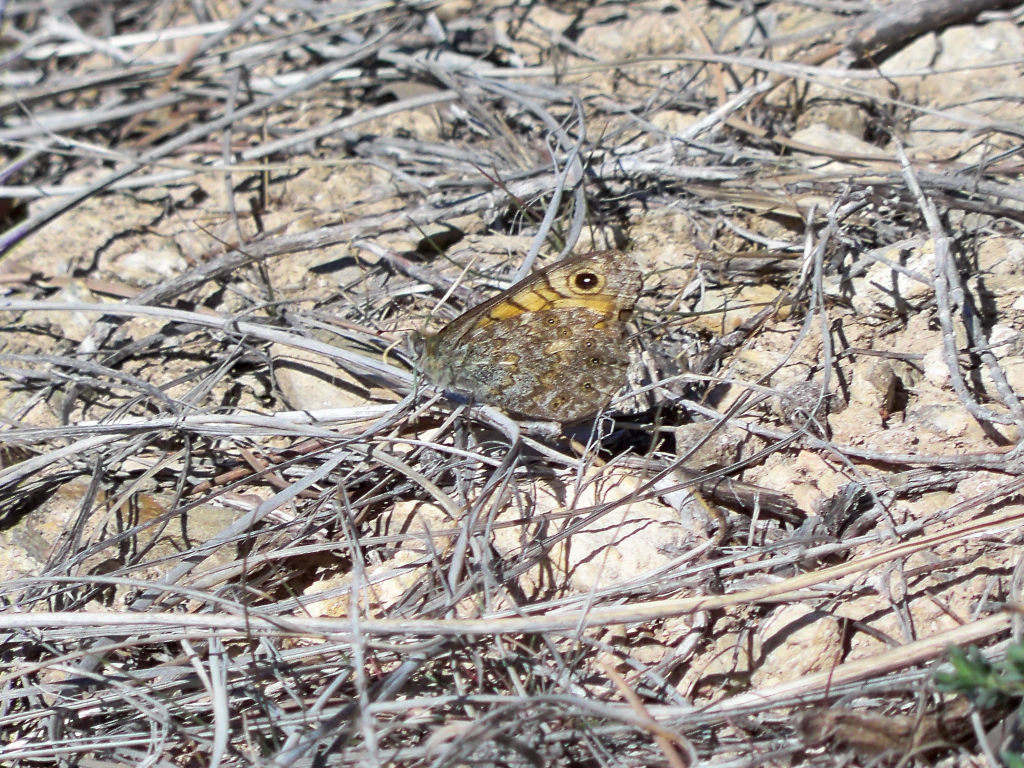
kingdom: Animalia
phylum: Arthropoda
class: Insecta
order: Lepidoptera
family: Nymphalidae
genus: Pararge
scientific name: Pararge Lasiommata megera
